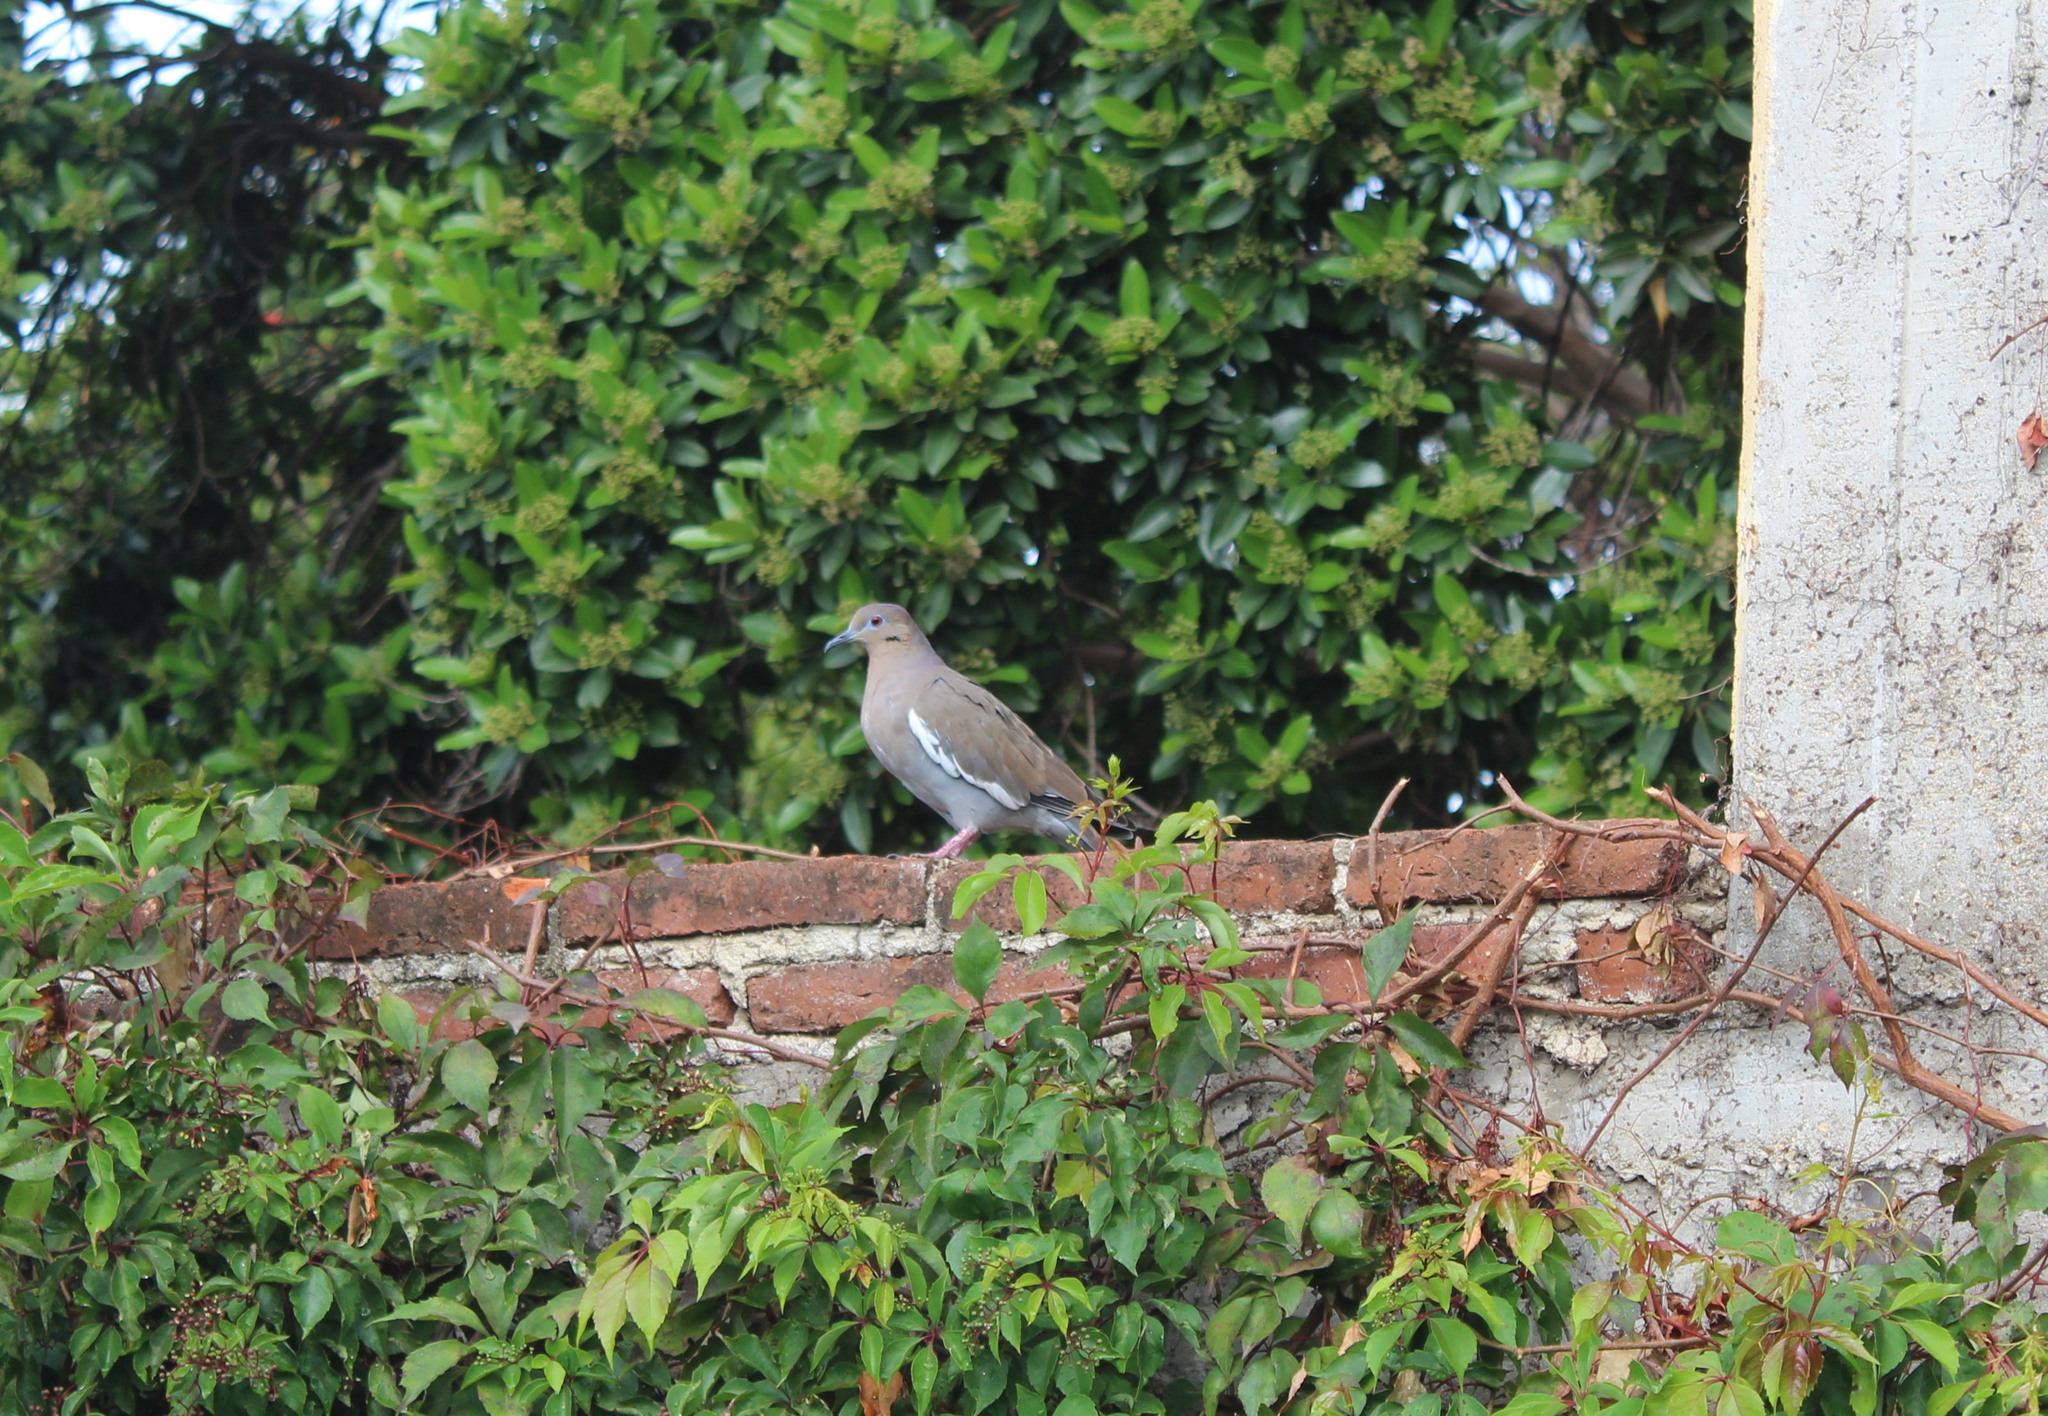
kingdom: Animalia
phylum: Chordata
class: Aves
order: Columbiformes
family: Columbidae
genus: Zenaida
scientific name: Zenaida asiatica
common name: White-winged dove
